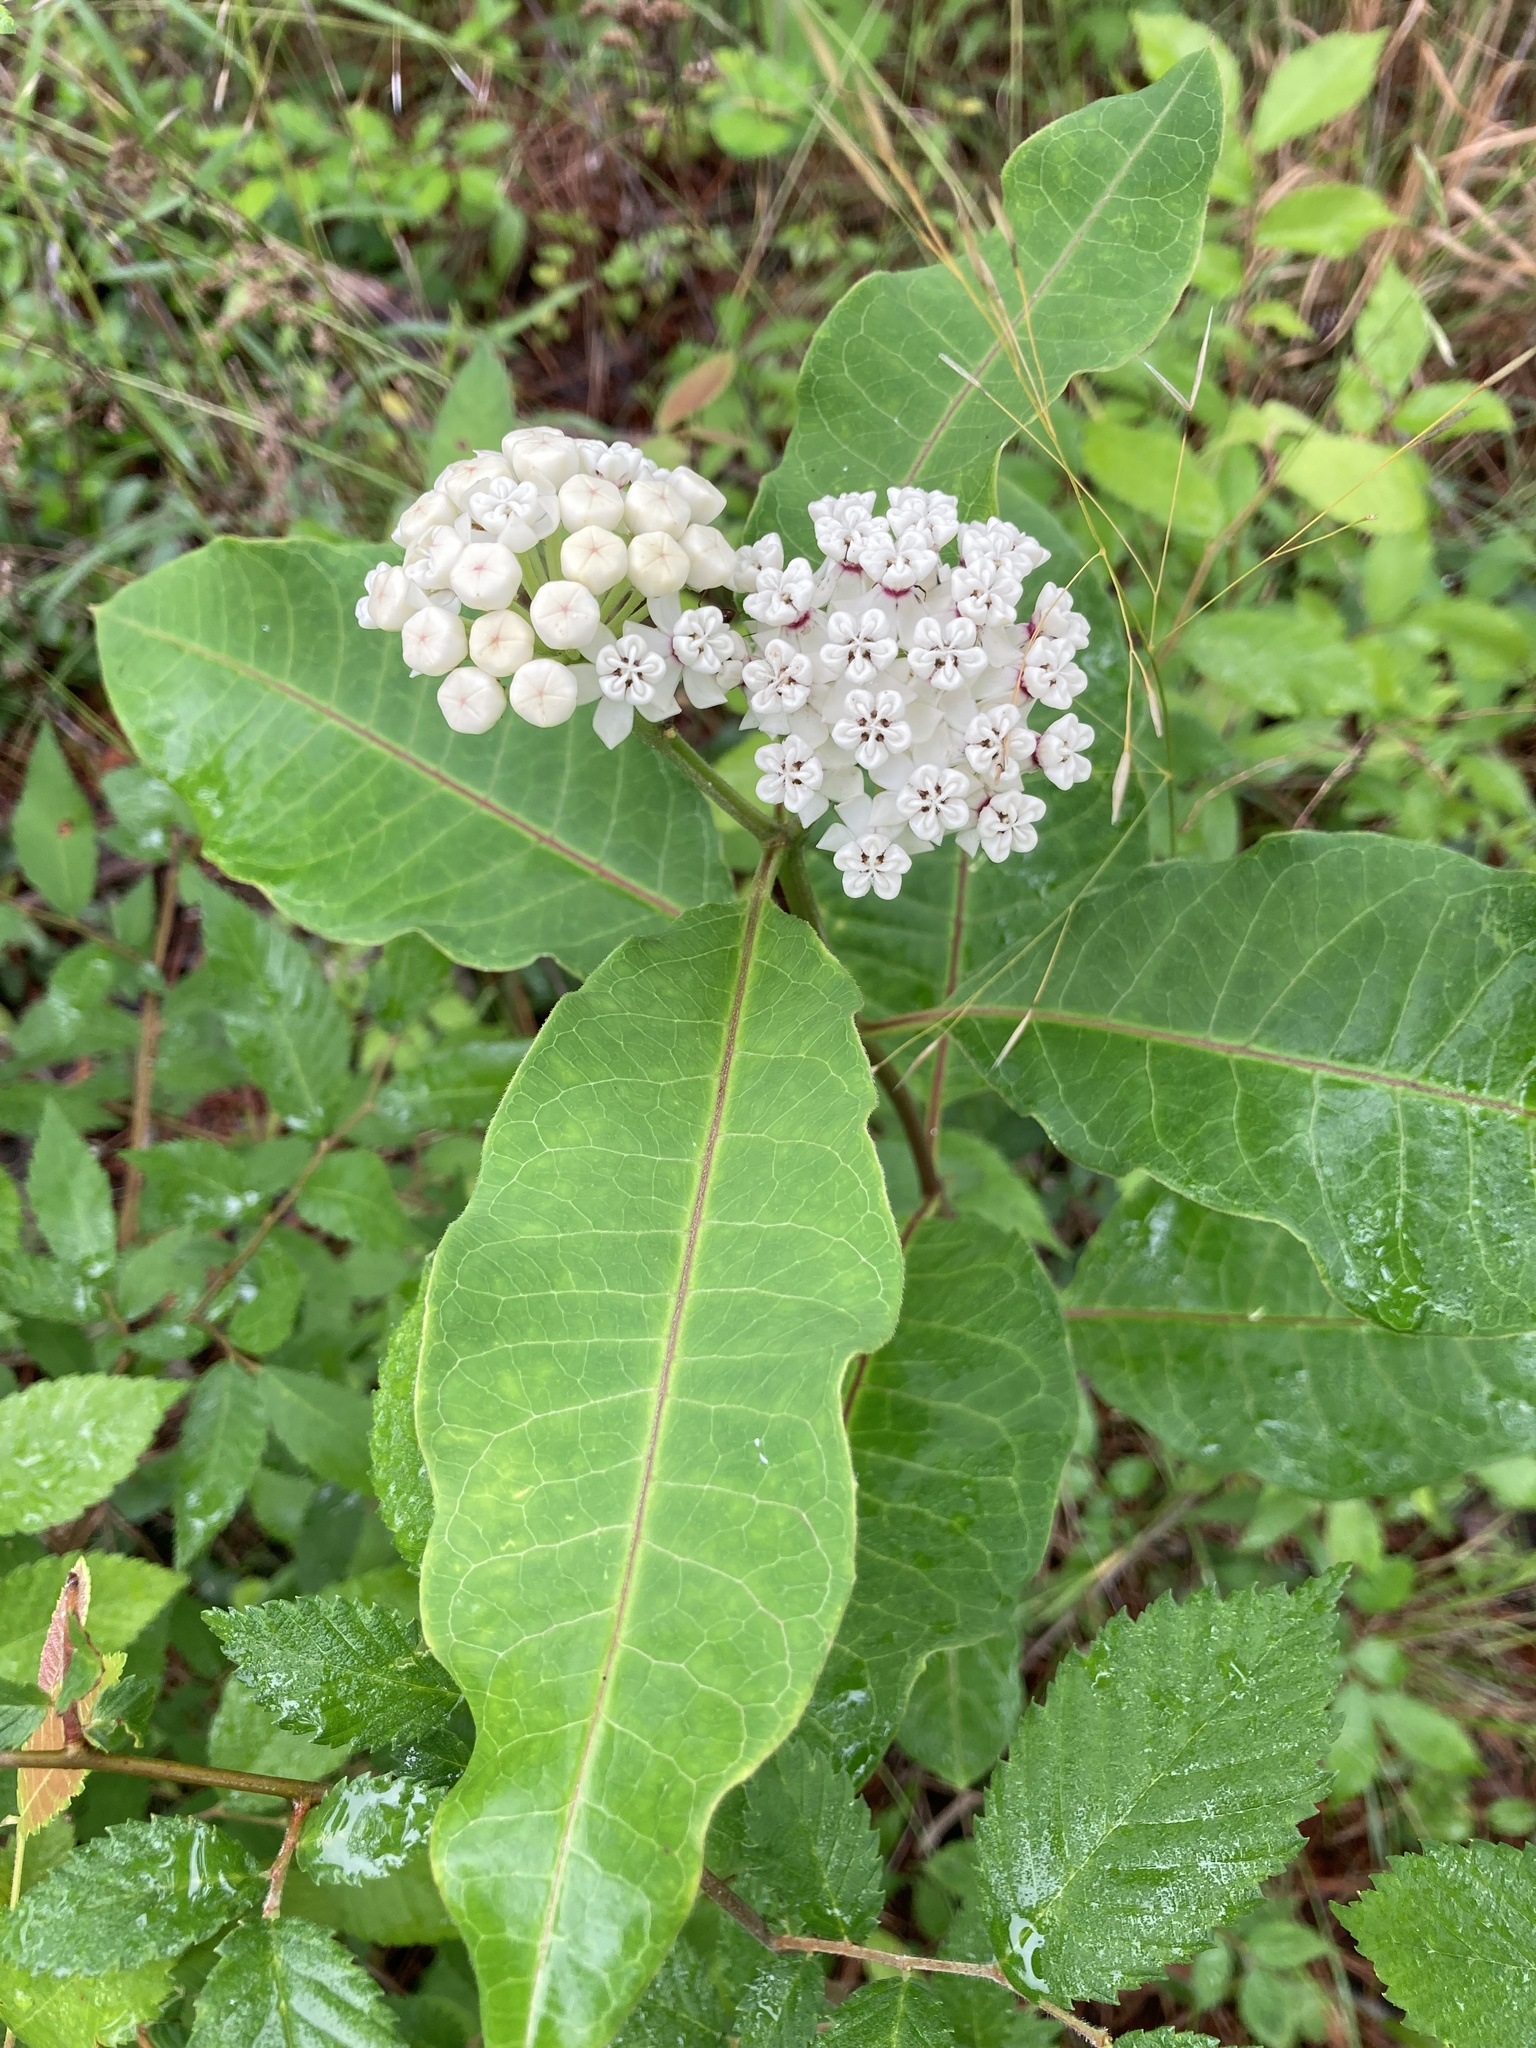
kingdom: Plantae
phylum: Tracheophyta
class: Magnoliopsida
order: Gentianales
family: Apocynaceae
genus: Asclepias
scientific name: Asclepias variegata
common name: Variegated milkweed
